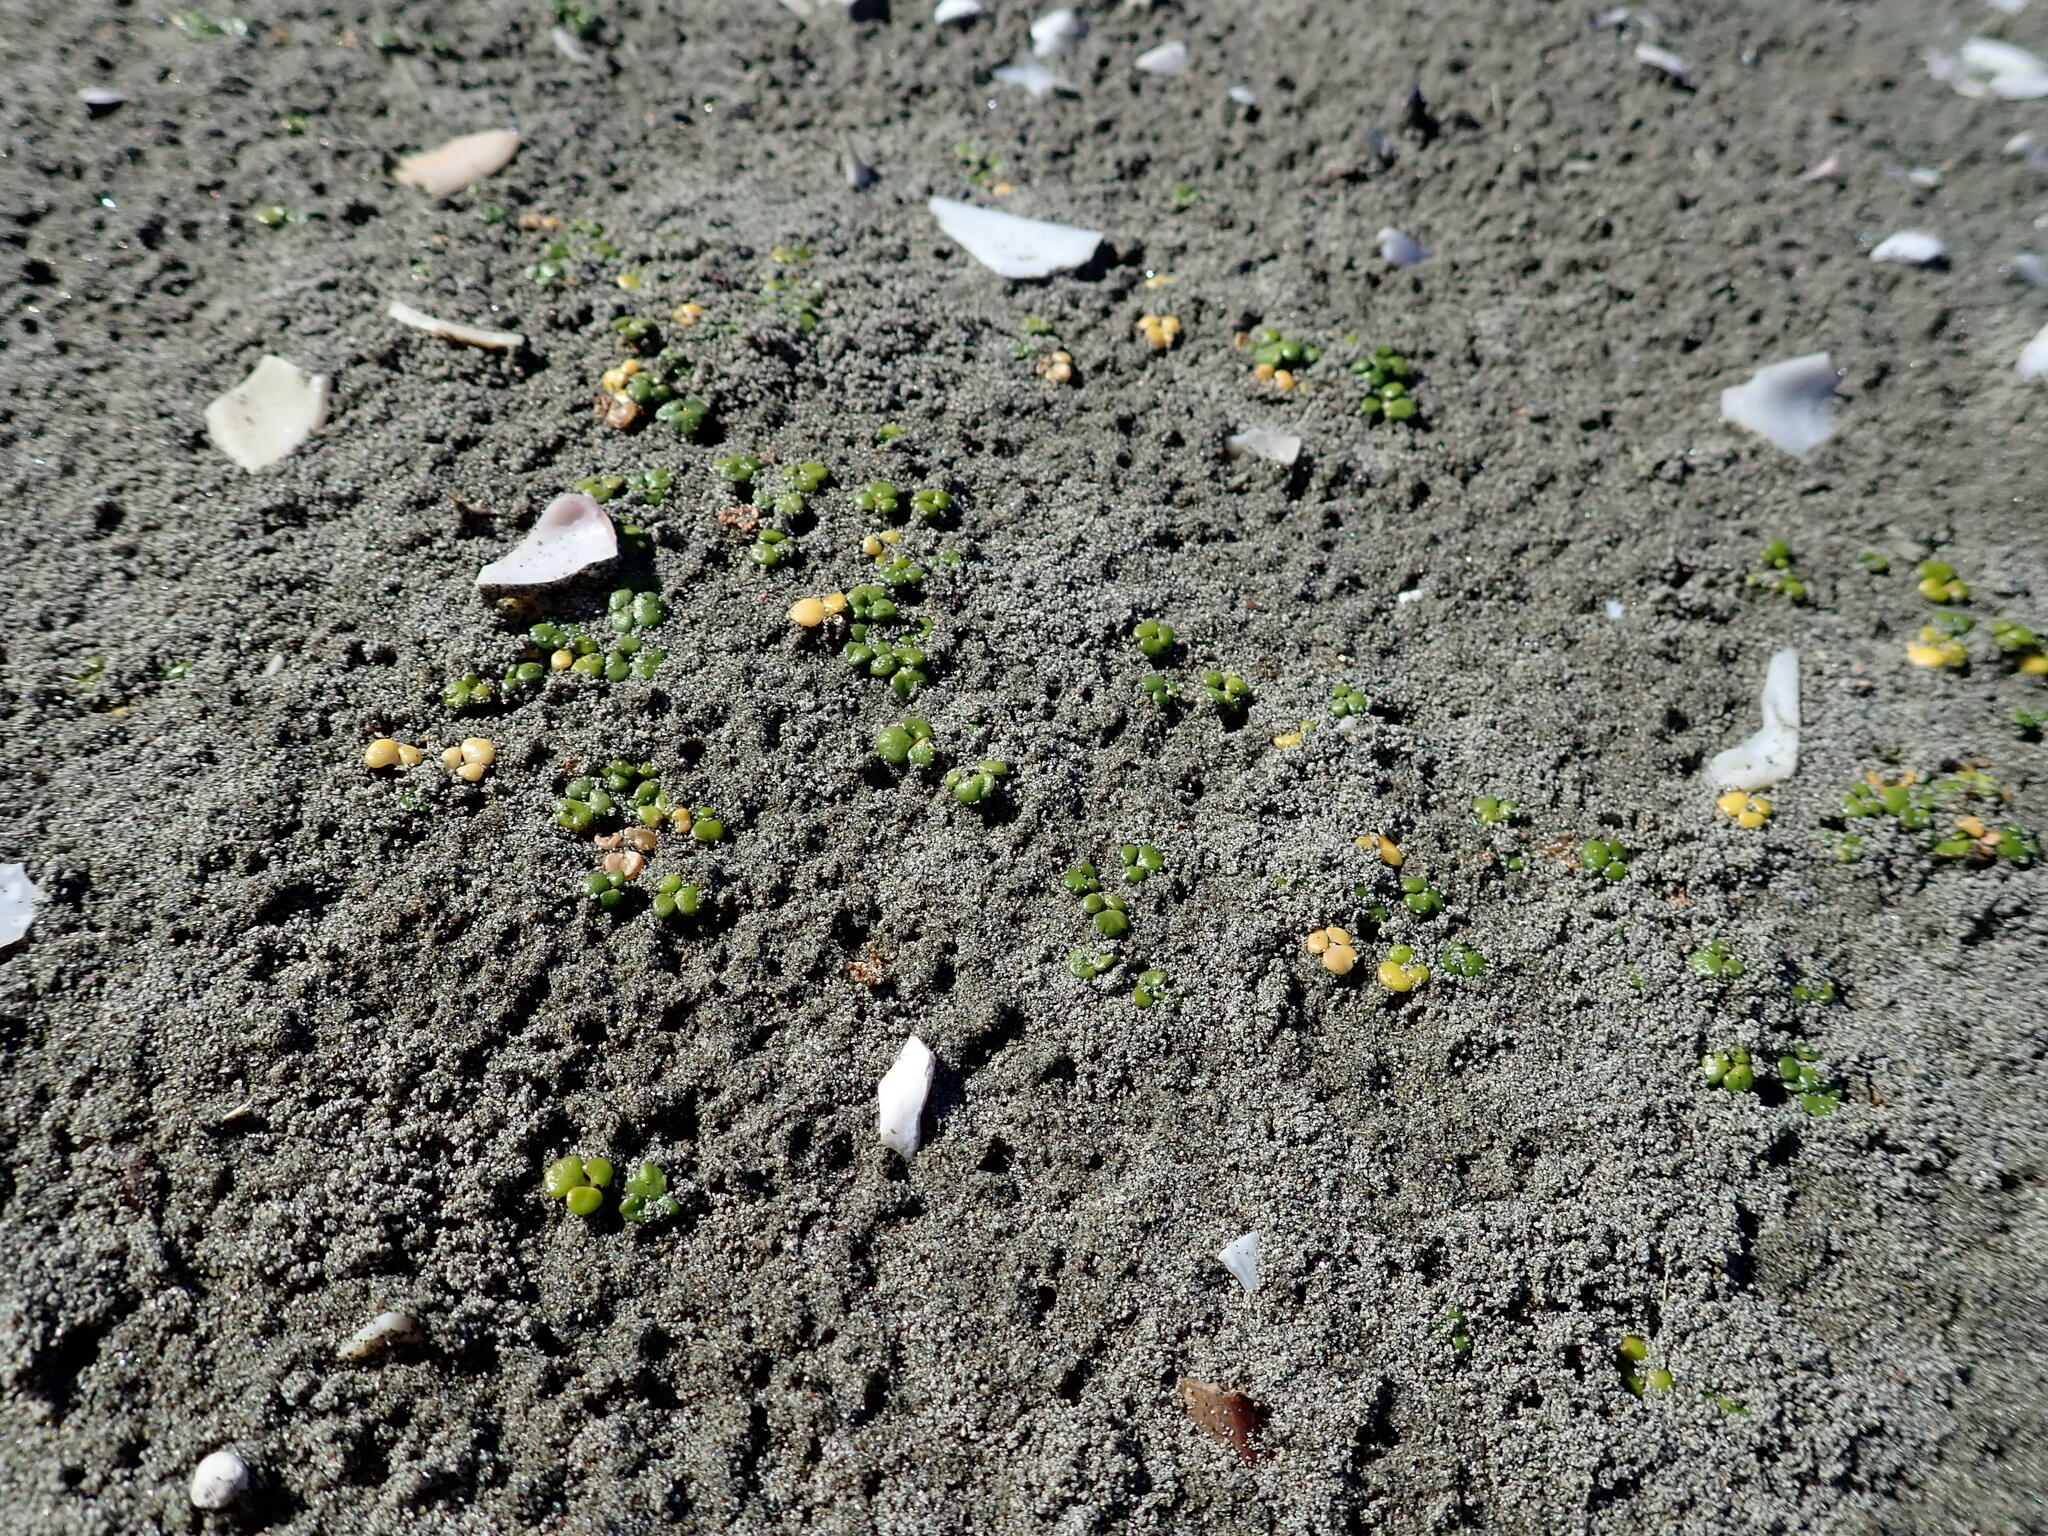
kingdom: Plantae
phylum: Tracheophyta
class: Magnoliopsida
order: Ranunculales
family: Ranunculaceae
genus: Ranunculus
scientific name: Ranunculus acaulis
